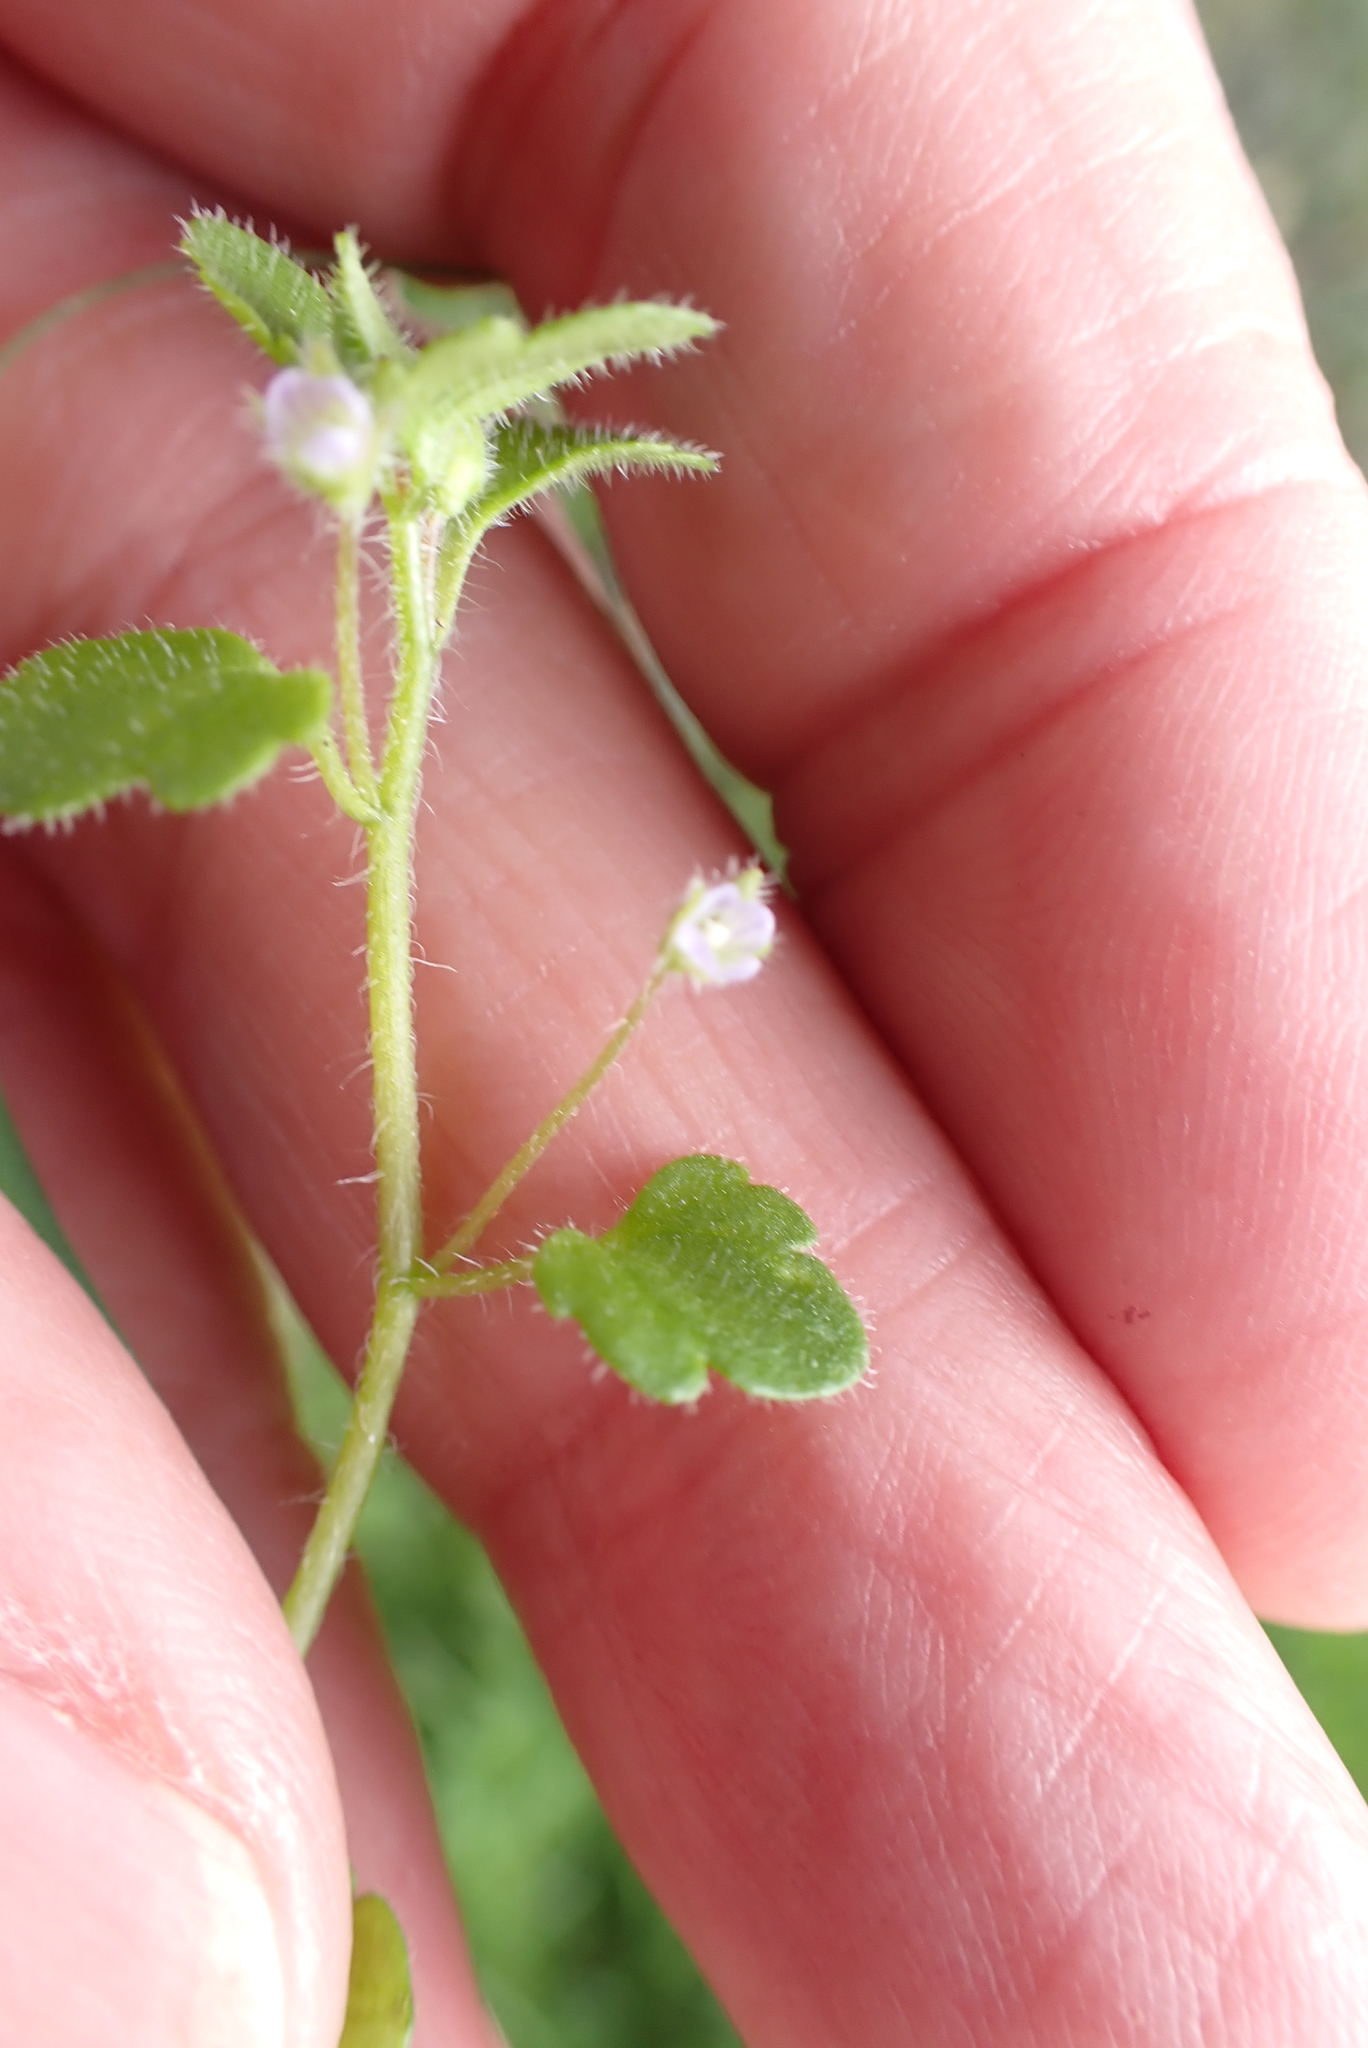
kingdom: Plantae
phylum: Tracheophyta
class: Magnoliopsida
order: Lamiales
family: Plantaginaceae
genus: Veronica
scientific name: Veronica sublobata
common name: False ivy-leaved speedwell
